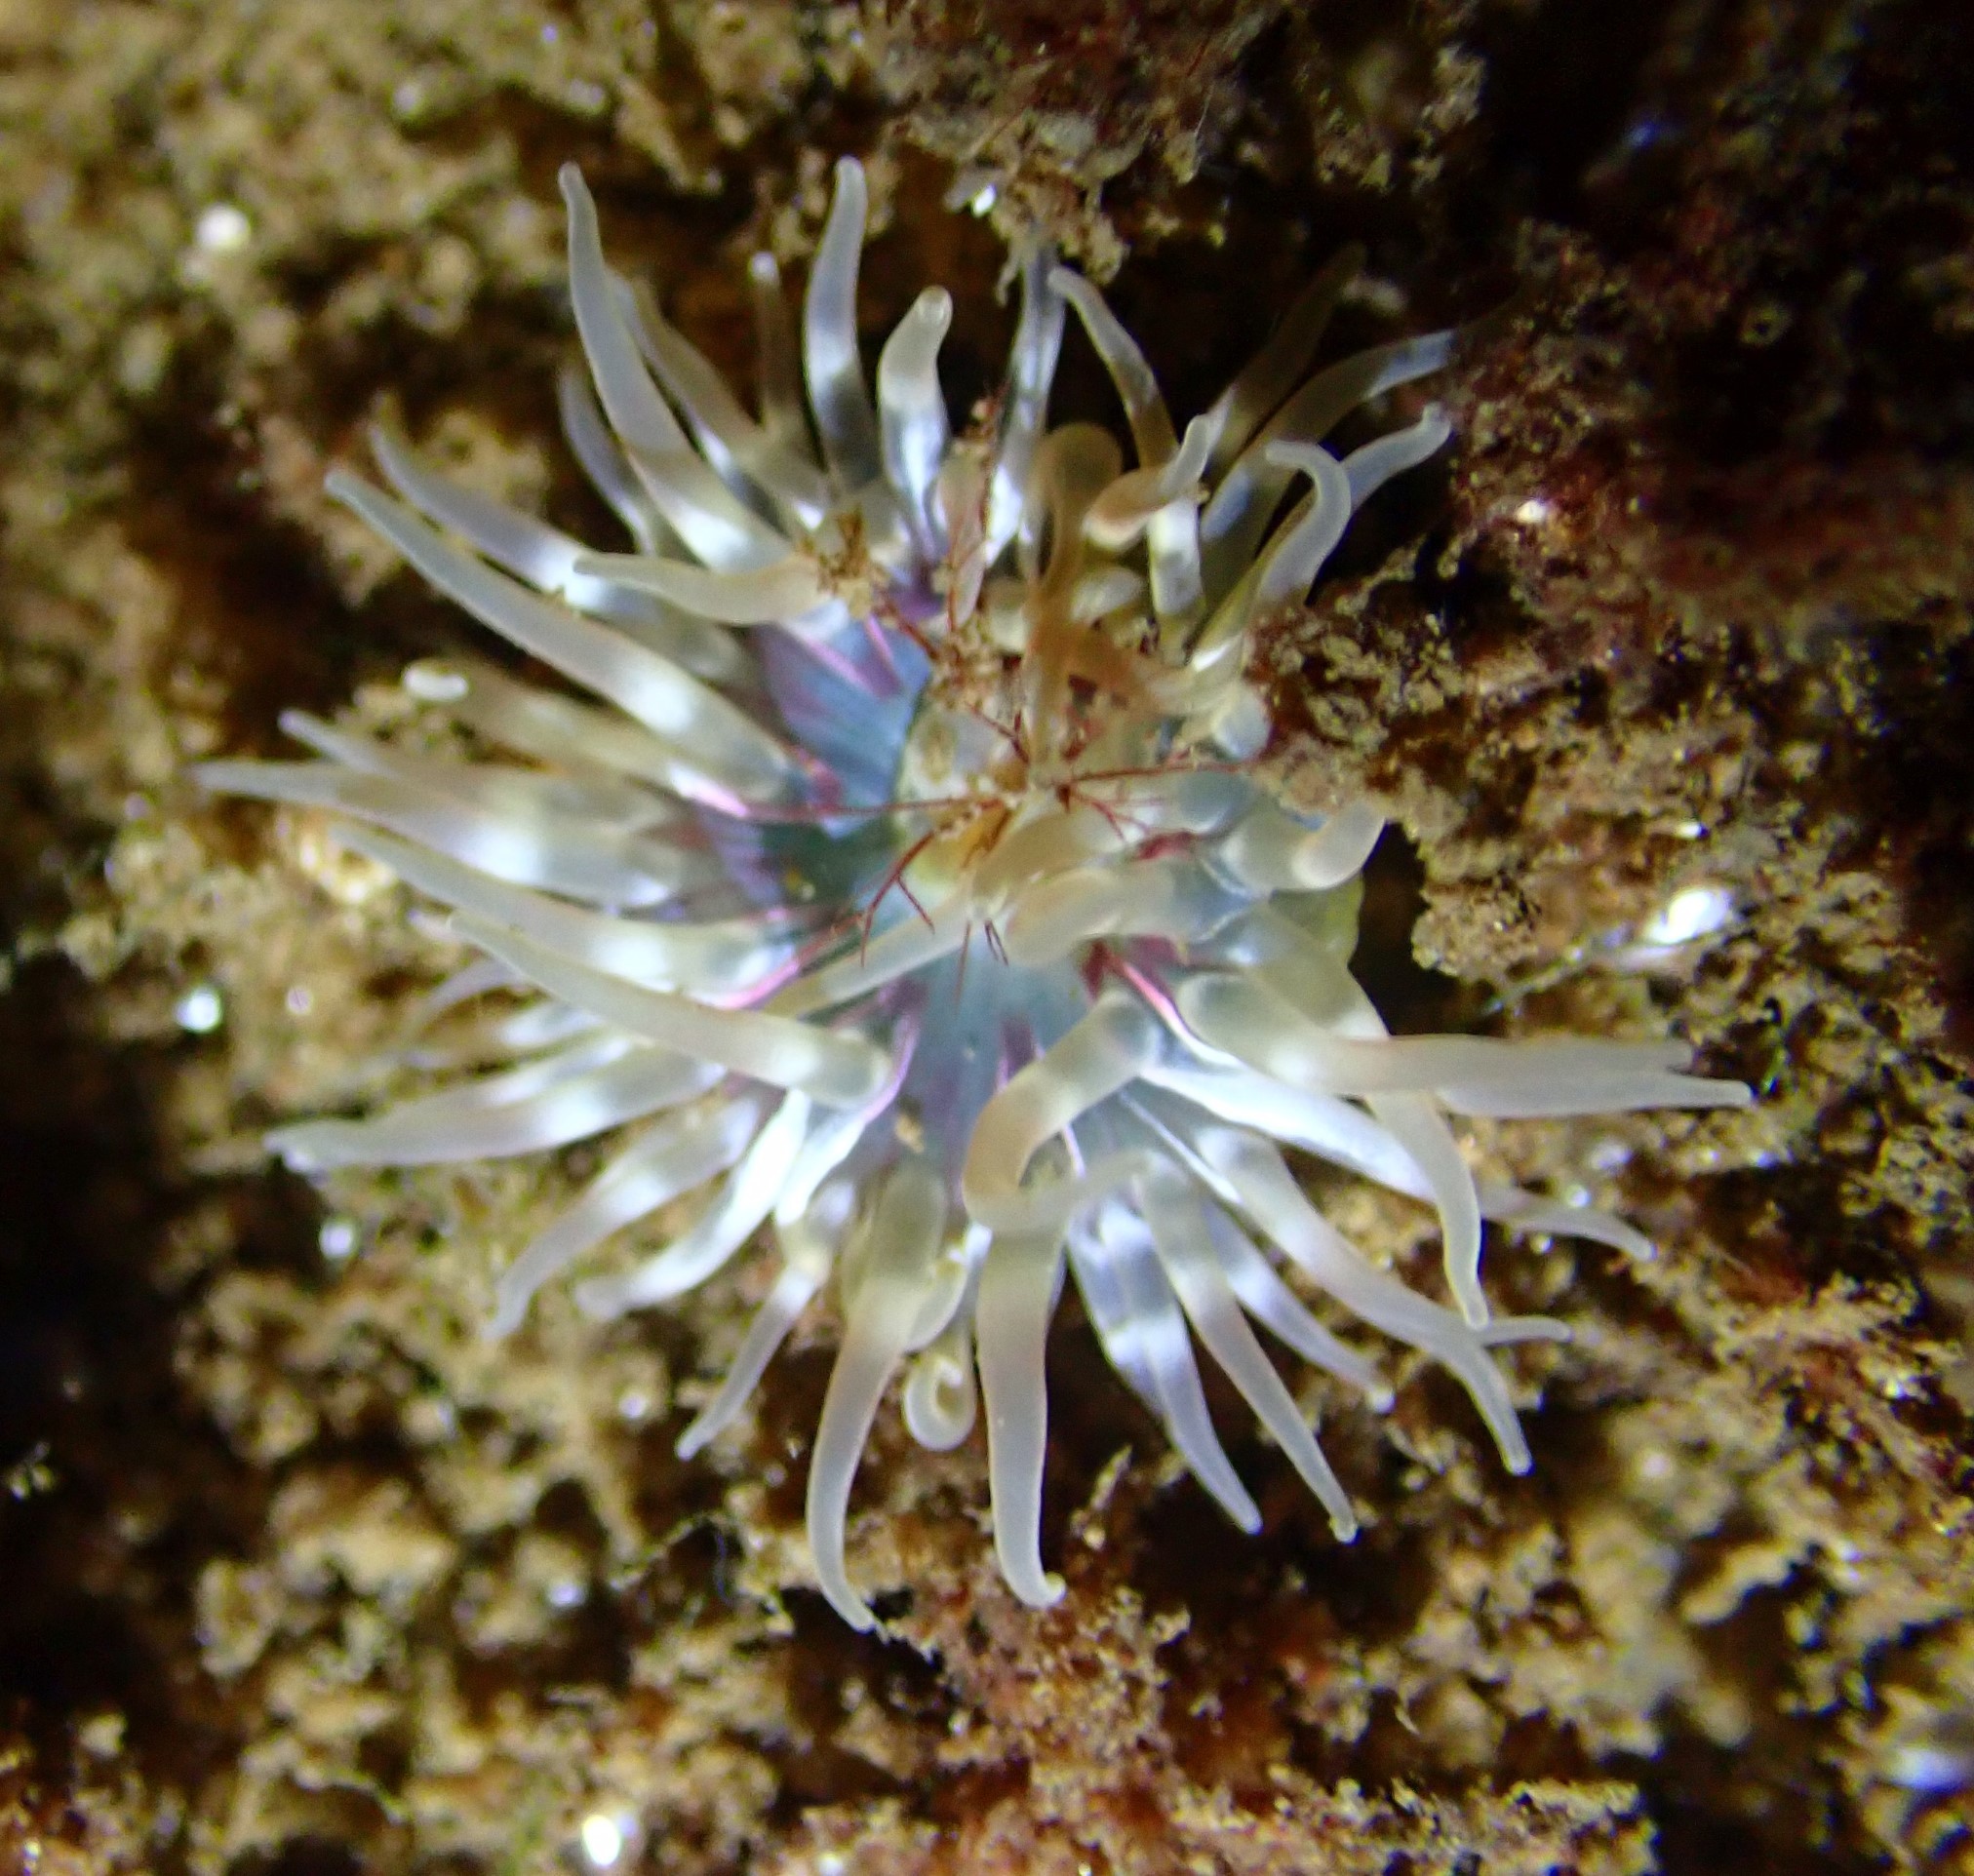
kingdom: Animalia
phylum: Cnidaria
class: Anthozoa
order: Actiniaria
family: Actiniidae
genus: Urticina
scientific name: Urticina felina
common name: Dahlia anemone
